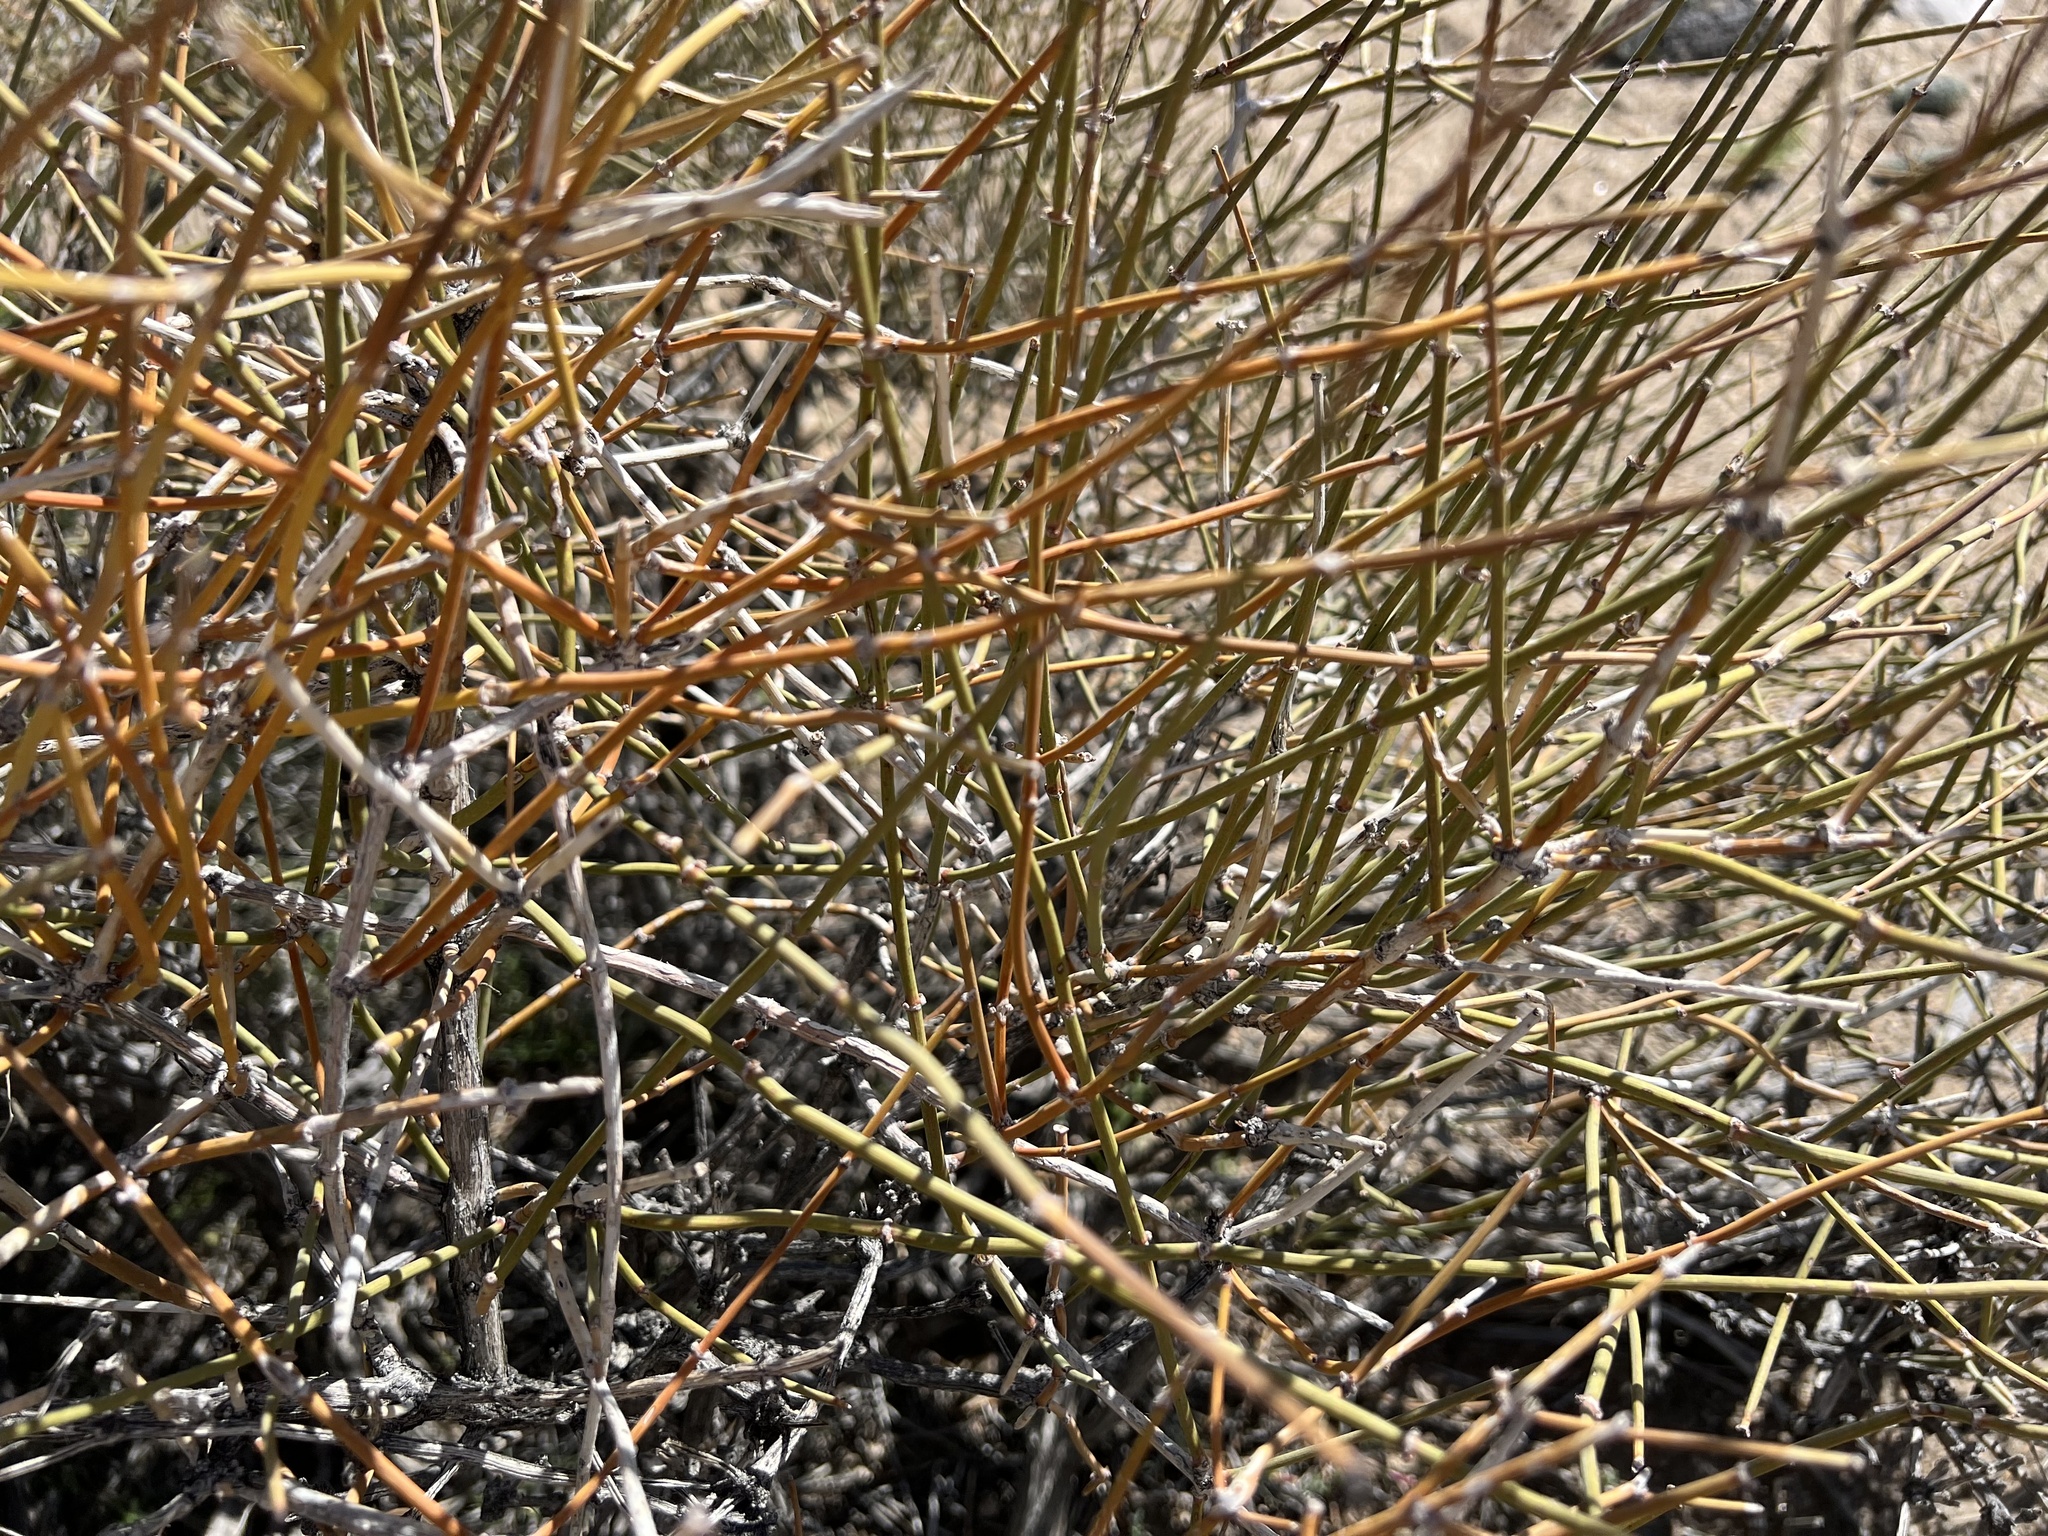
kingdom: Plantae
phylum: Tracheophyta
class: Gnetopsida
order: Ephedrales
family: Ephedraceae
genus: Ephedra
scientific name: Ephedra nevadensis
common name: Gray ephedra
